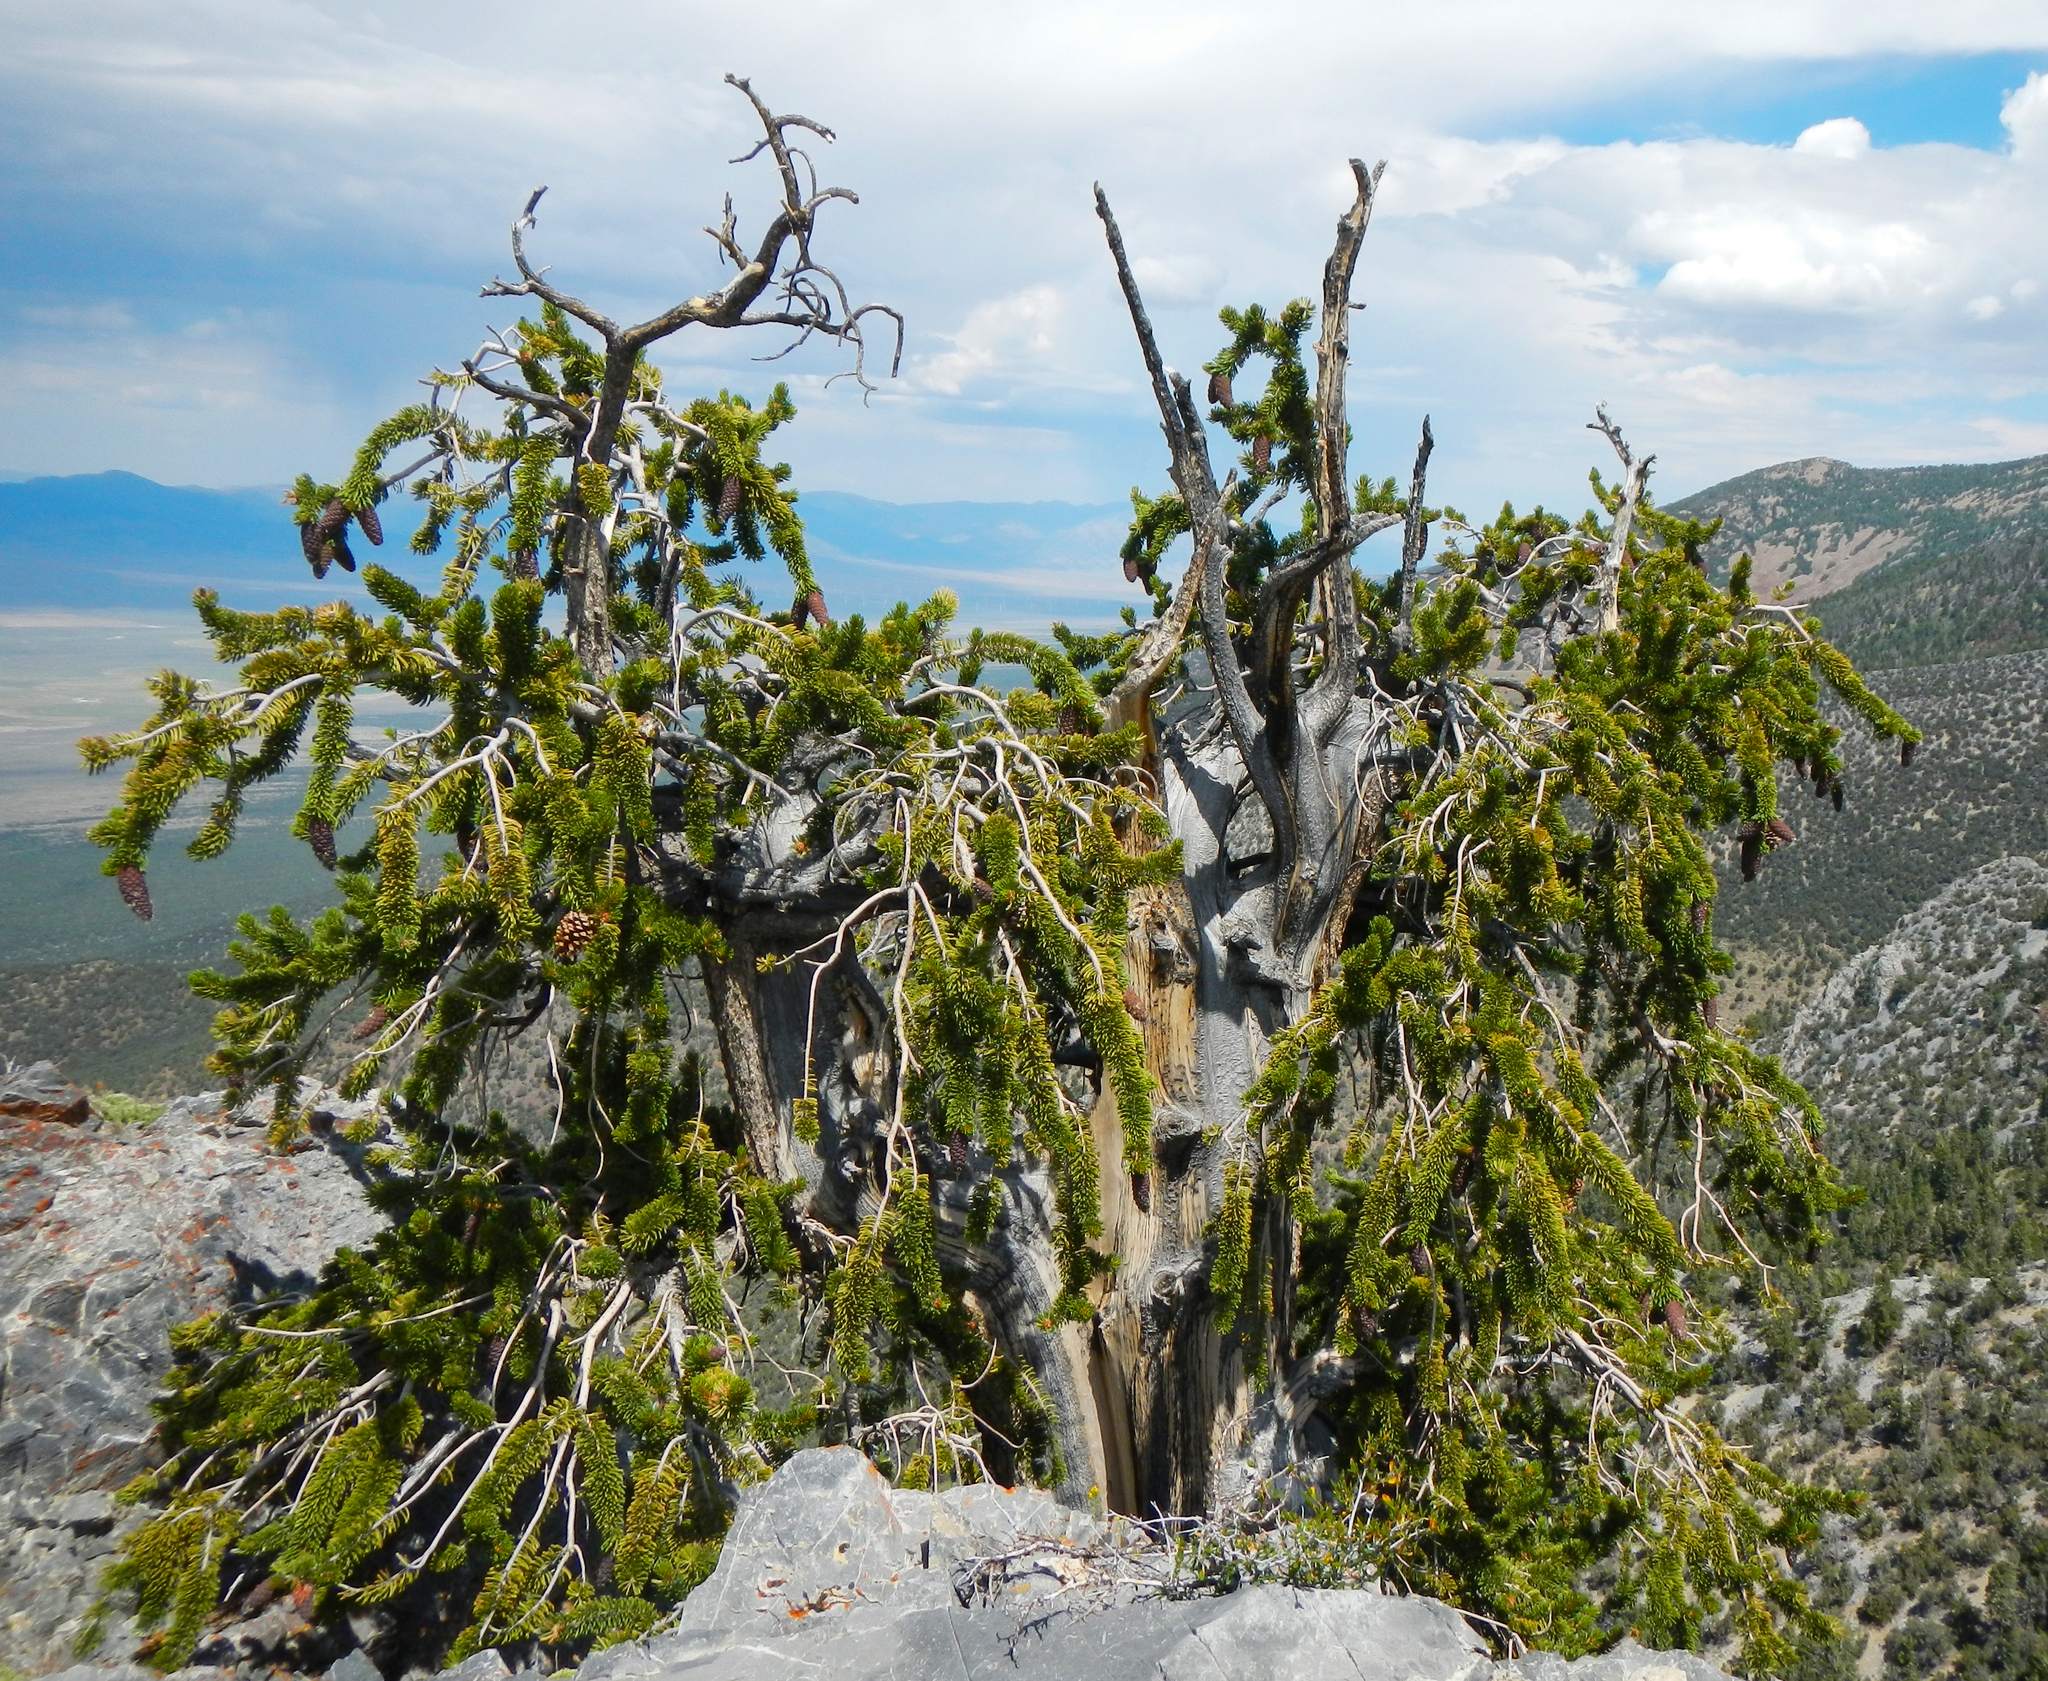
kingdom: Plantae
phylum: Tracheophyta
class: Pinopsida
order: Pinales
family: Pinaceae
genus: Pinus
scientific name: Pinus longaeva
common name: Intermountain bristlecone pine
